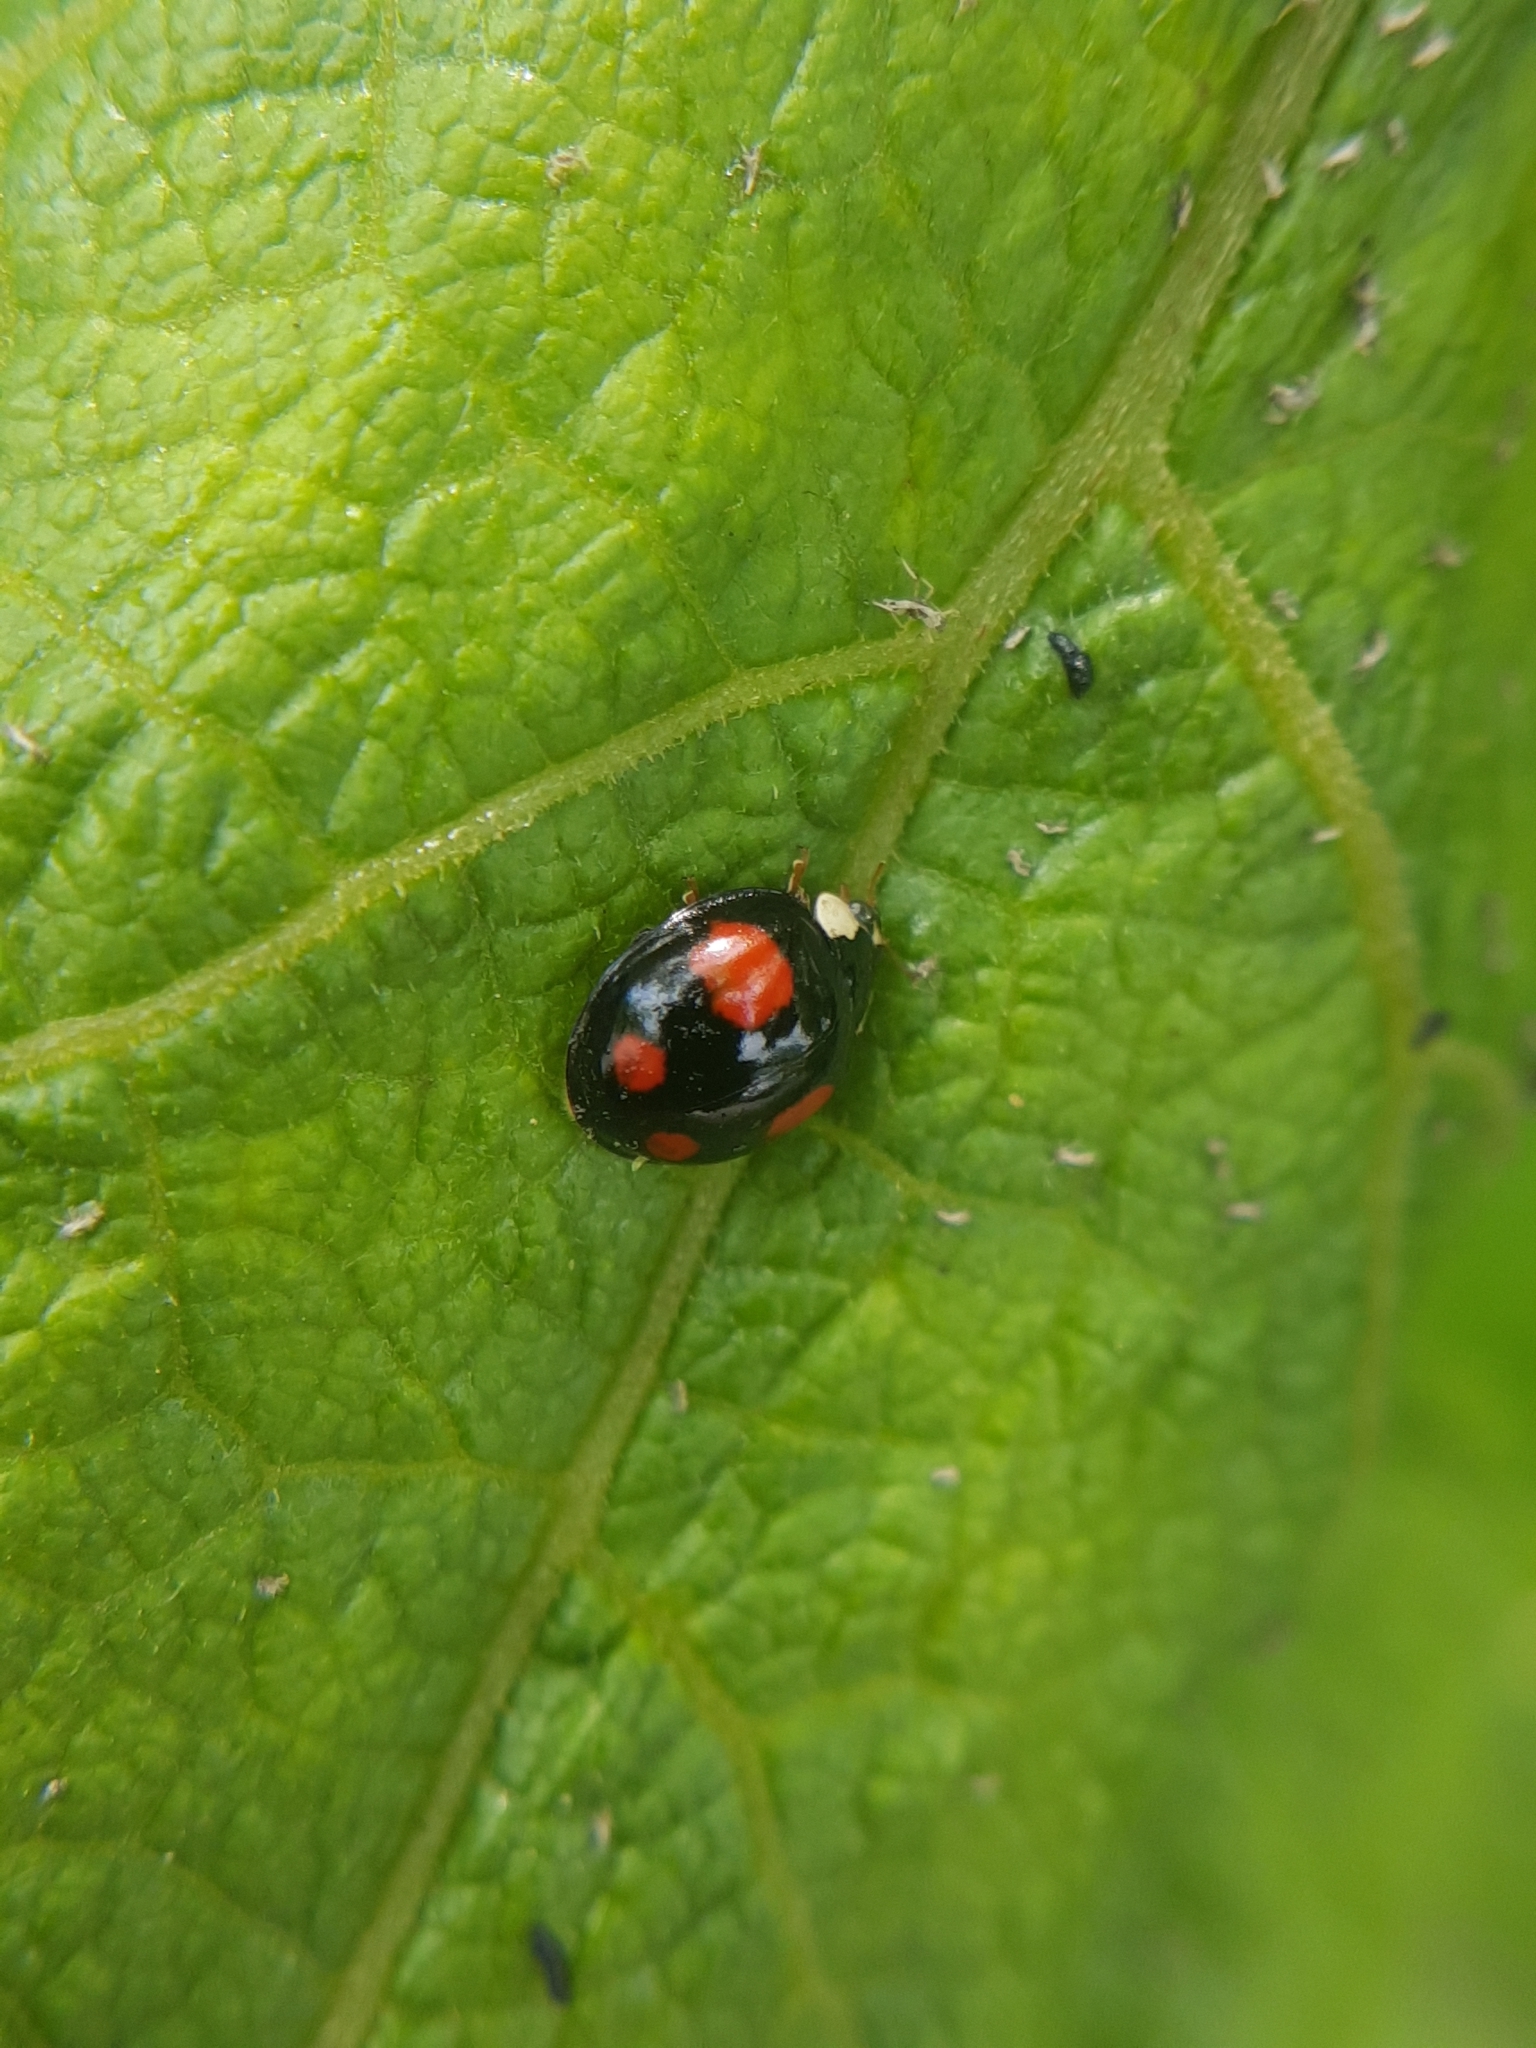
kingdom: Animalia
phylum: Arthropoda
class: Insecta
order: Coleoptera
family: Coccinellidae
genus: Harmonia
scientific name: Harmonia axyridis
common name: Harlequin ladybird
